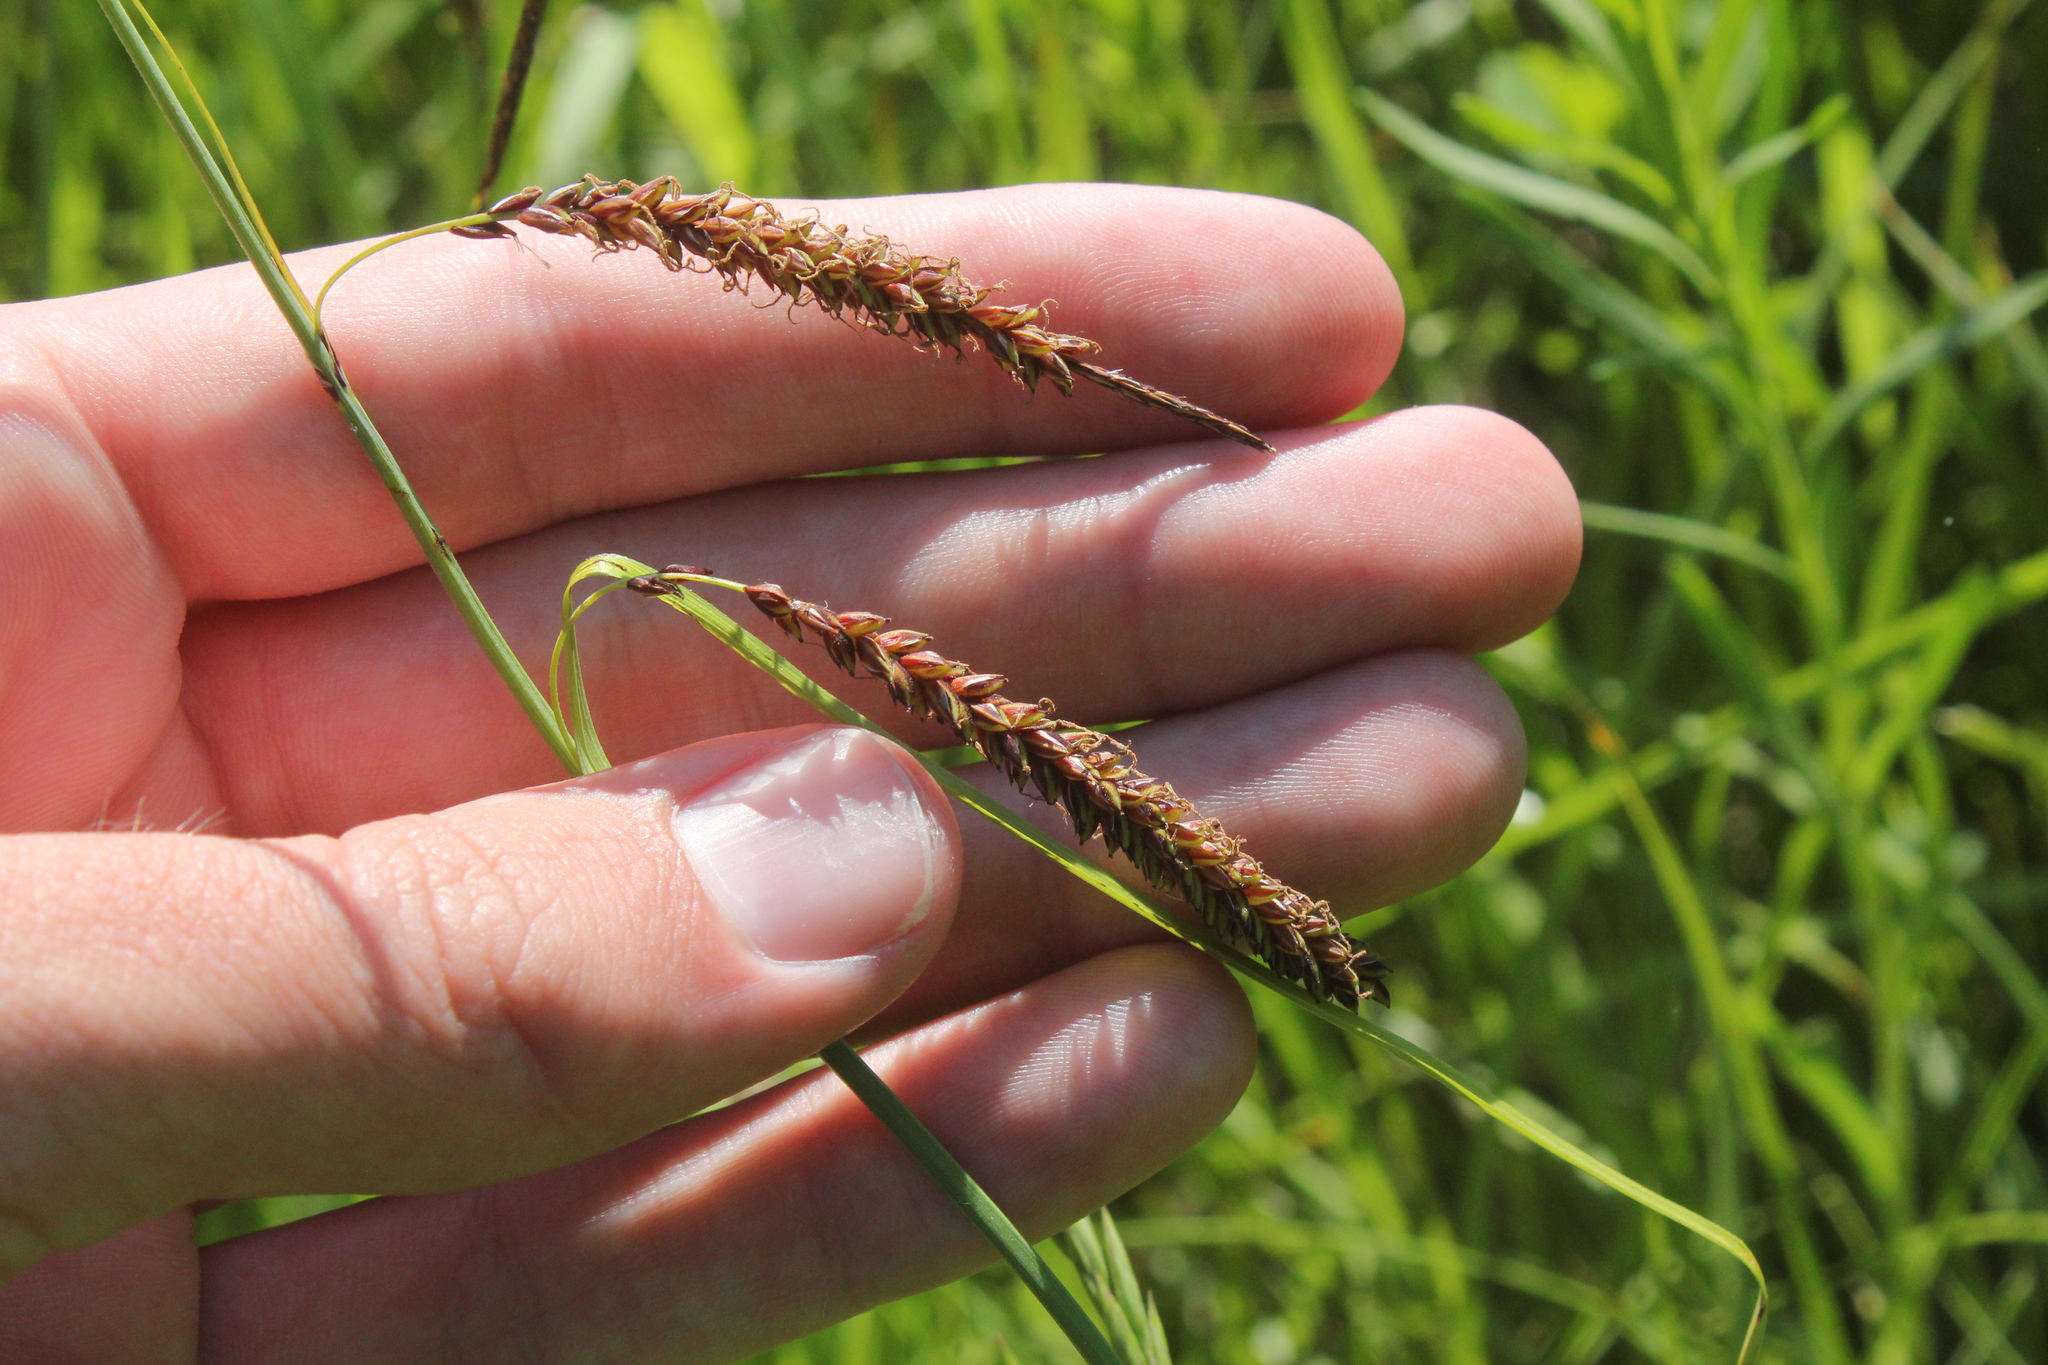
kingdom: Plantae
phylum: Tracheophyta
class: Liliopsida
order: Poales
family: Cyperaceae
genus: Carex
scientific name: Carex flacca
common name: Glaucous sedge
